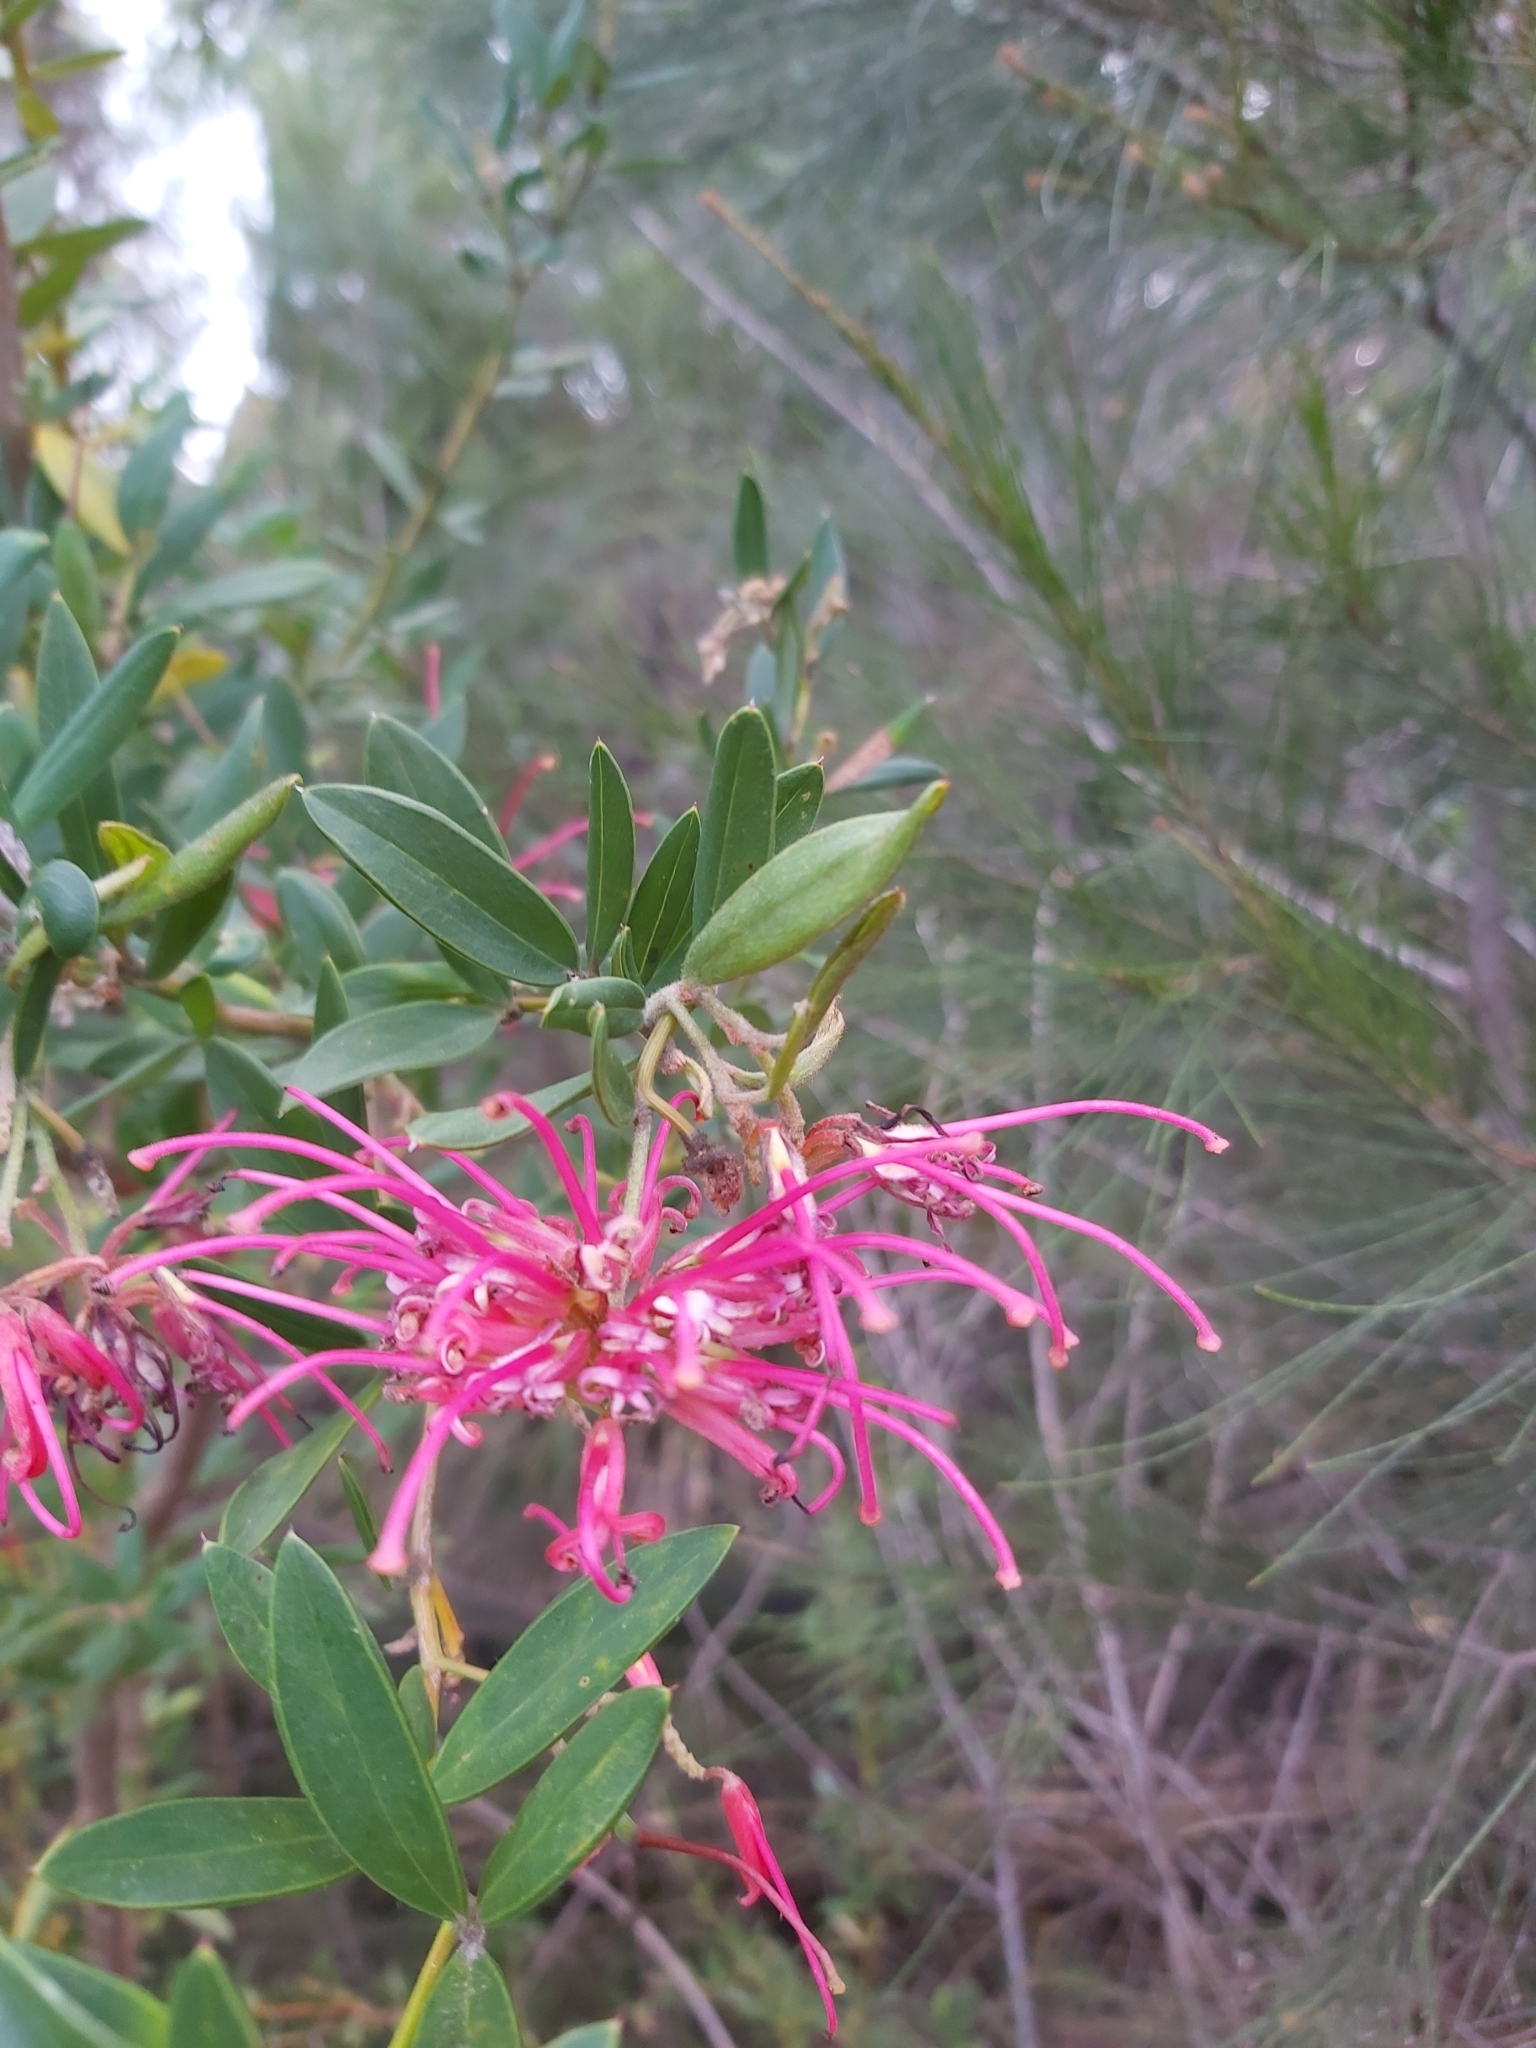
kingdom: Plantae
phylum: Tracheophyta
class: Magnoliopsida
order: Proteales
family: Proteaceae
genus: Grevillea
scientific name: Grevillea speciosa
